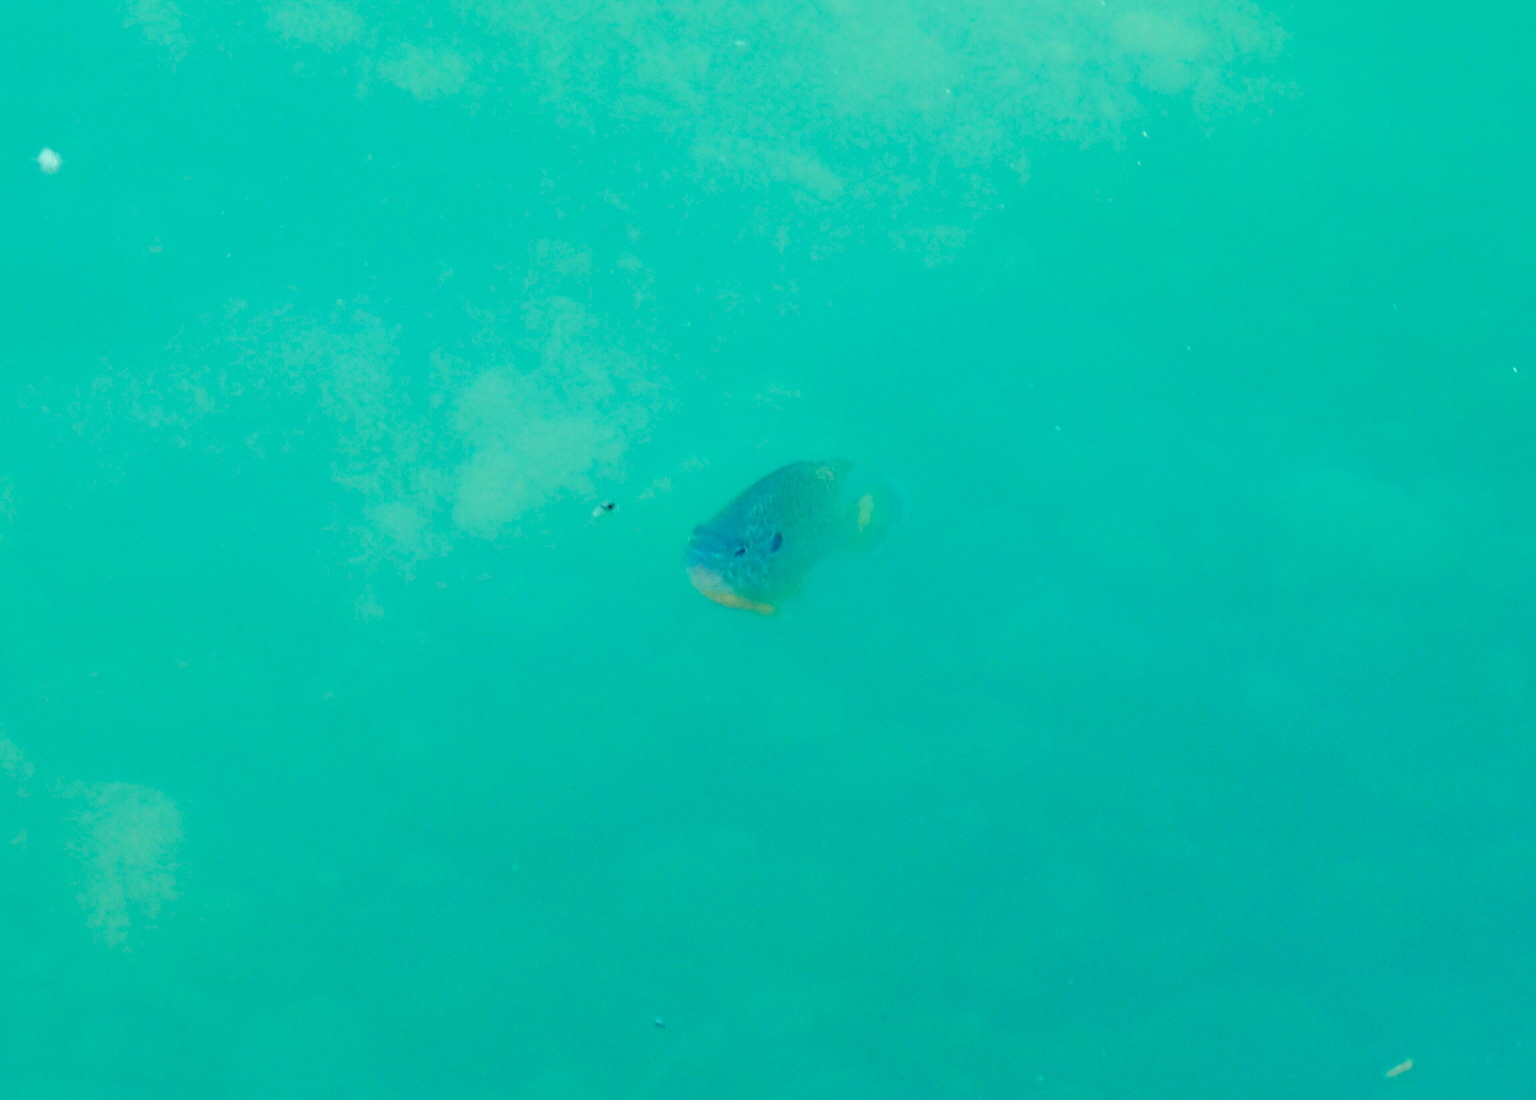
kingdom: Animalia
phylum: Chordata
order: Perciformes
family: Centrarchidae
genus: Lepomis
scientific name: Lepomis gibbosus
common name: Pumpkinseed
